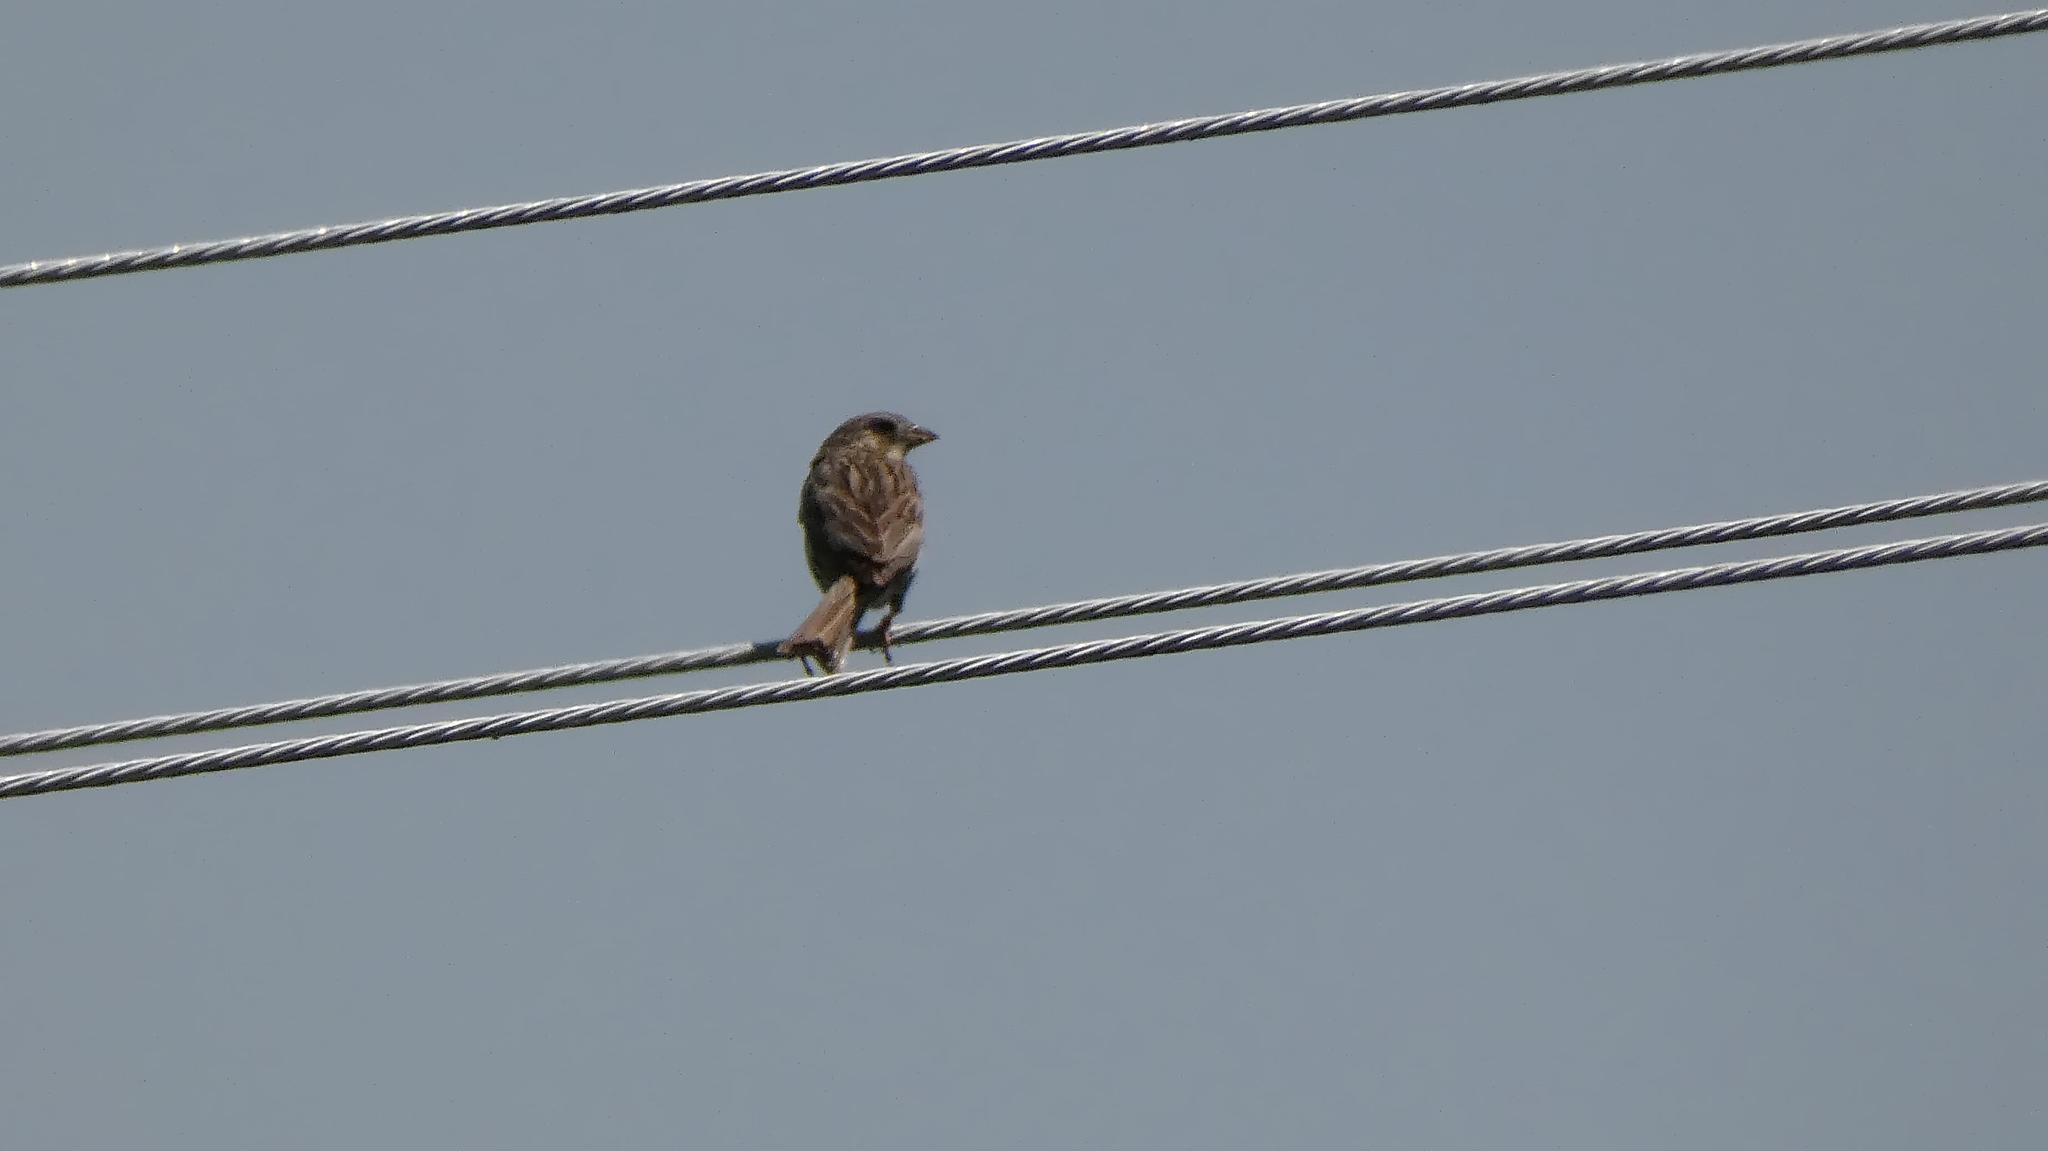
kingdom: Animalia
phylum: Chordata
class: Aves
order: Passeriformes
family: Emberizidae
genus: Emberiza
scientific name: Emberiza calandra
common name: Corn bunting
